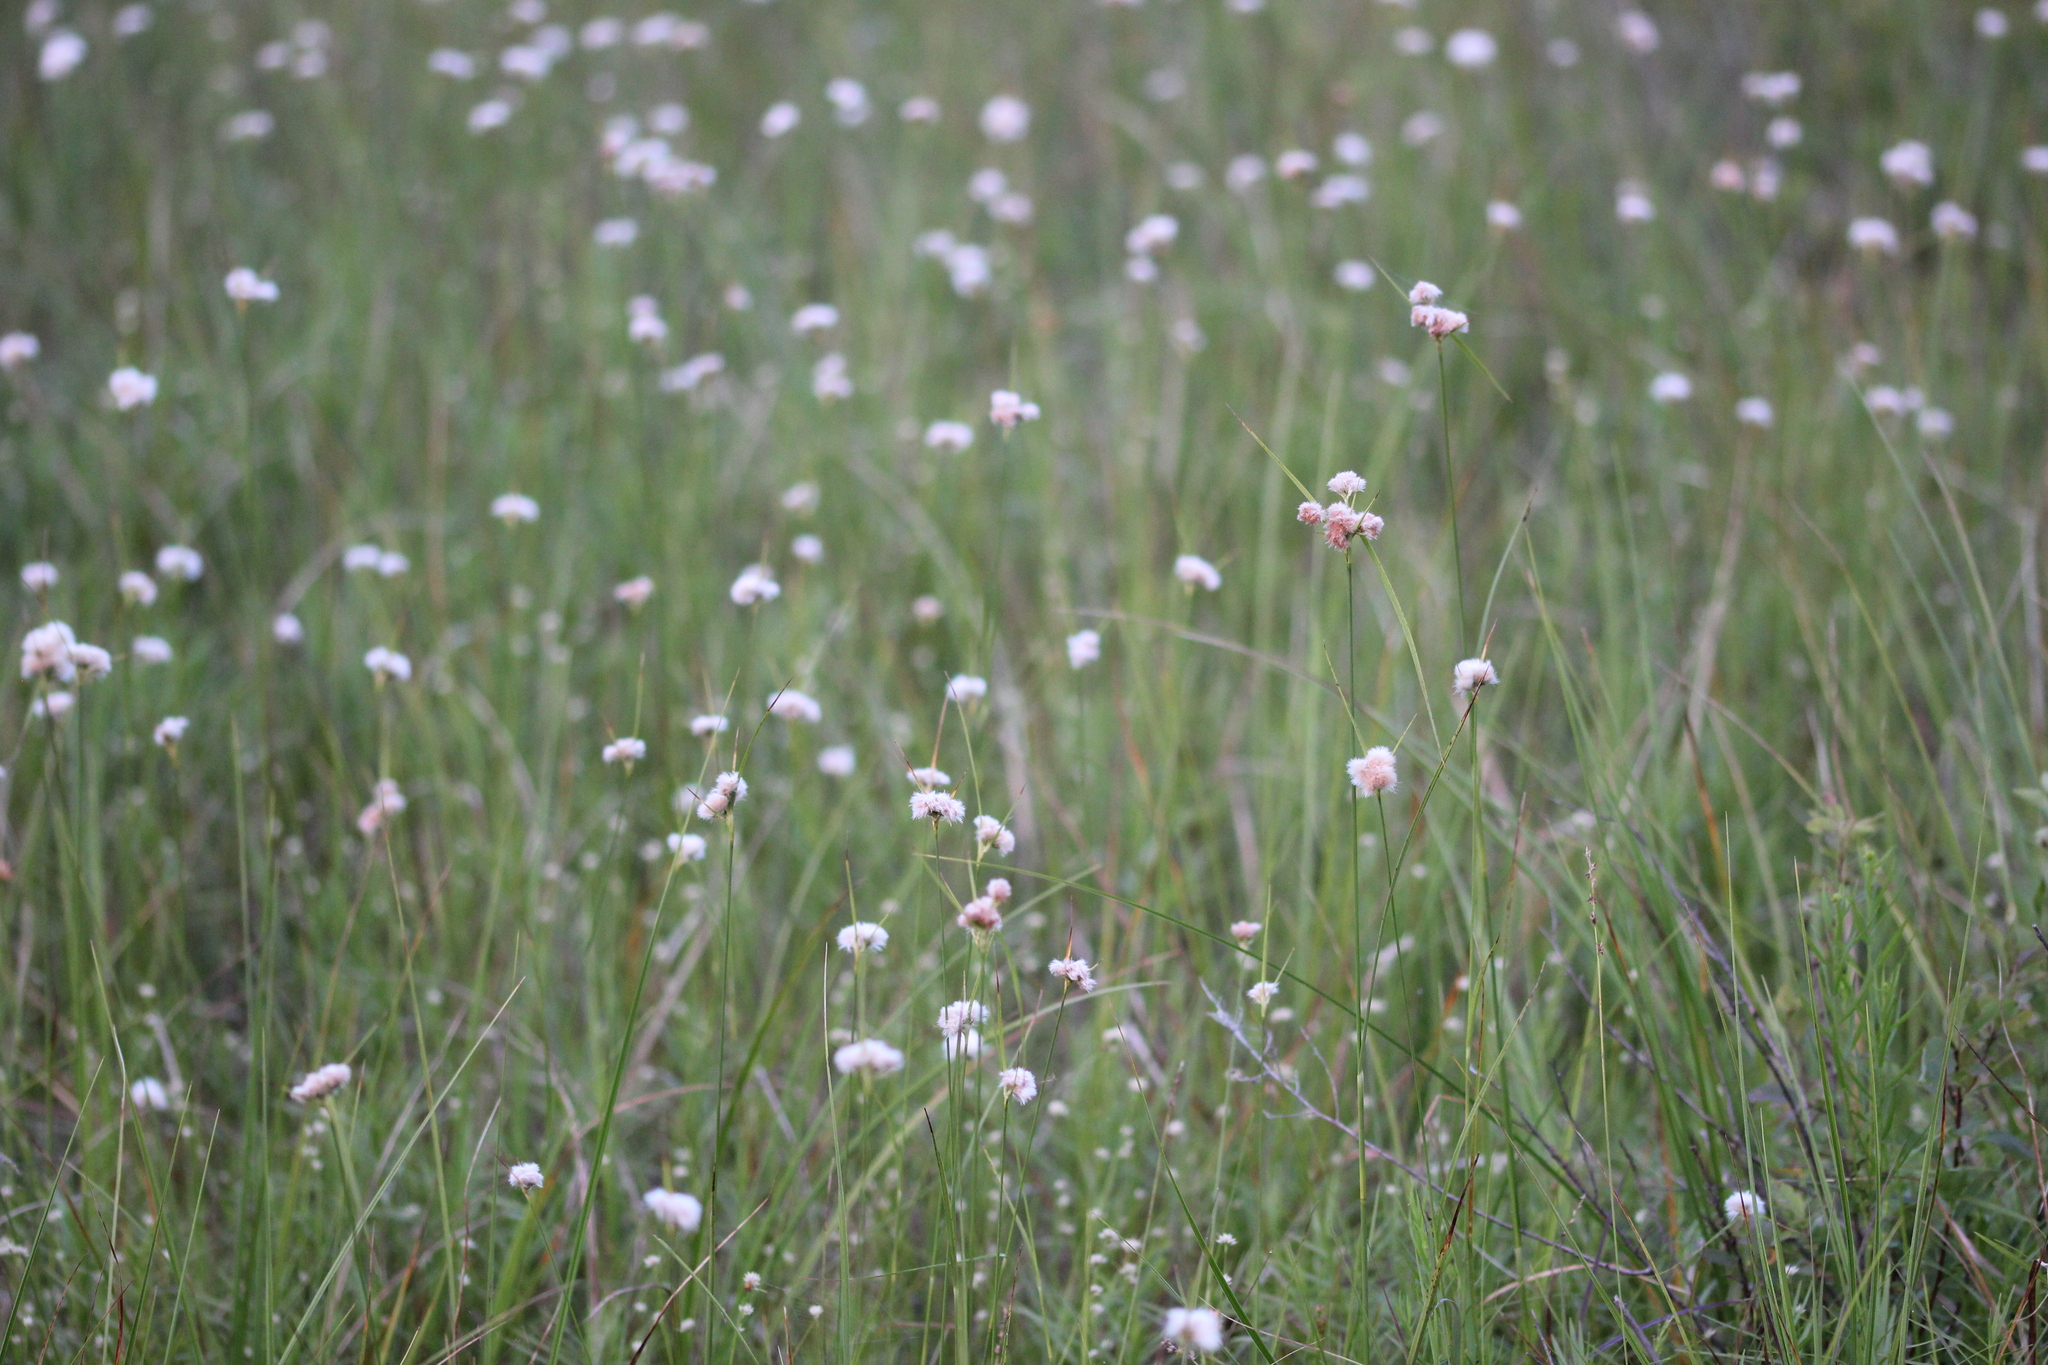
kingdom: Plantae
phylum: Tracheophyta
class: Liliopsida
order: Poales
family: Cyperaceae
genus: Eriophorum
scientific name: Eriophorum virginicum
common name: Tawny cottongrass
